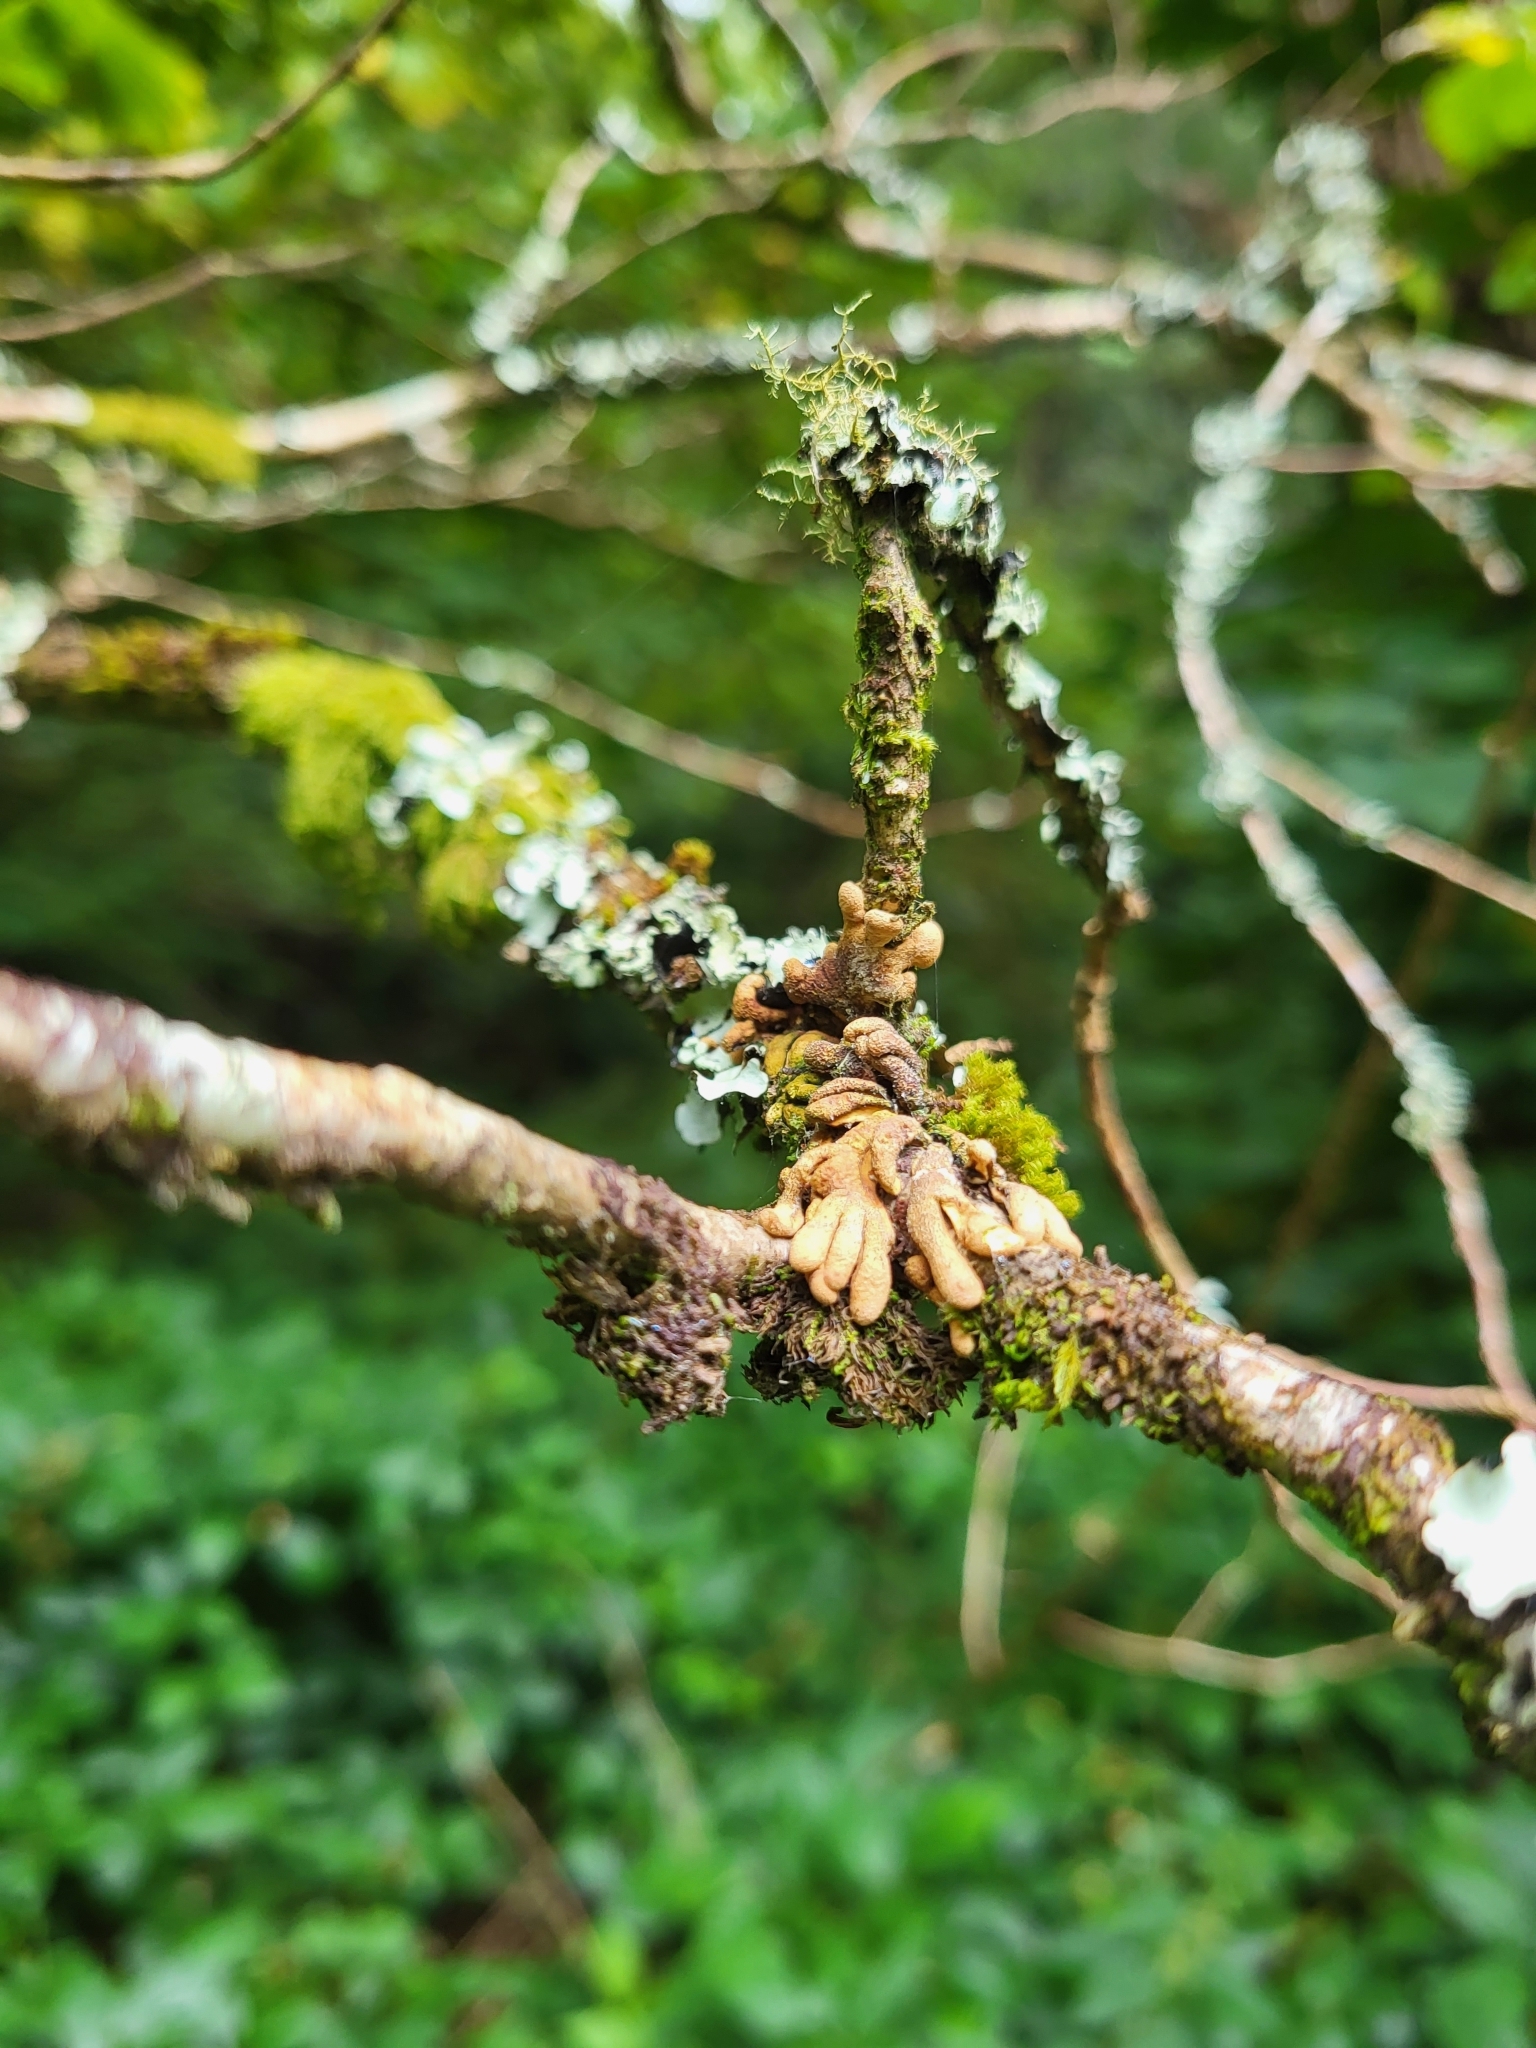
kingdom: Fungi
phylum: Ascomycota
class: Sordariomycetes
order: Hypocreales
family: Hypocreaceae
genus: Hypocreopsis
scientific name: Hypocreopsis rhododendri
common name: Hazel gloves
